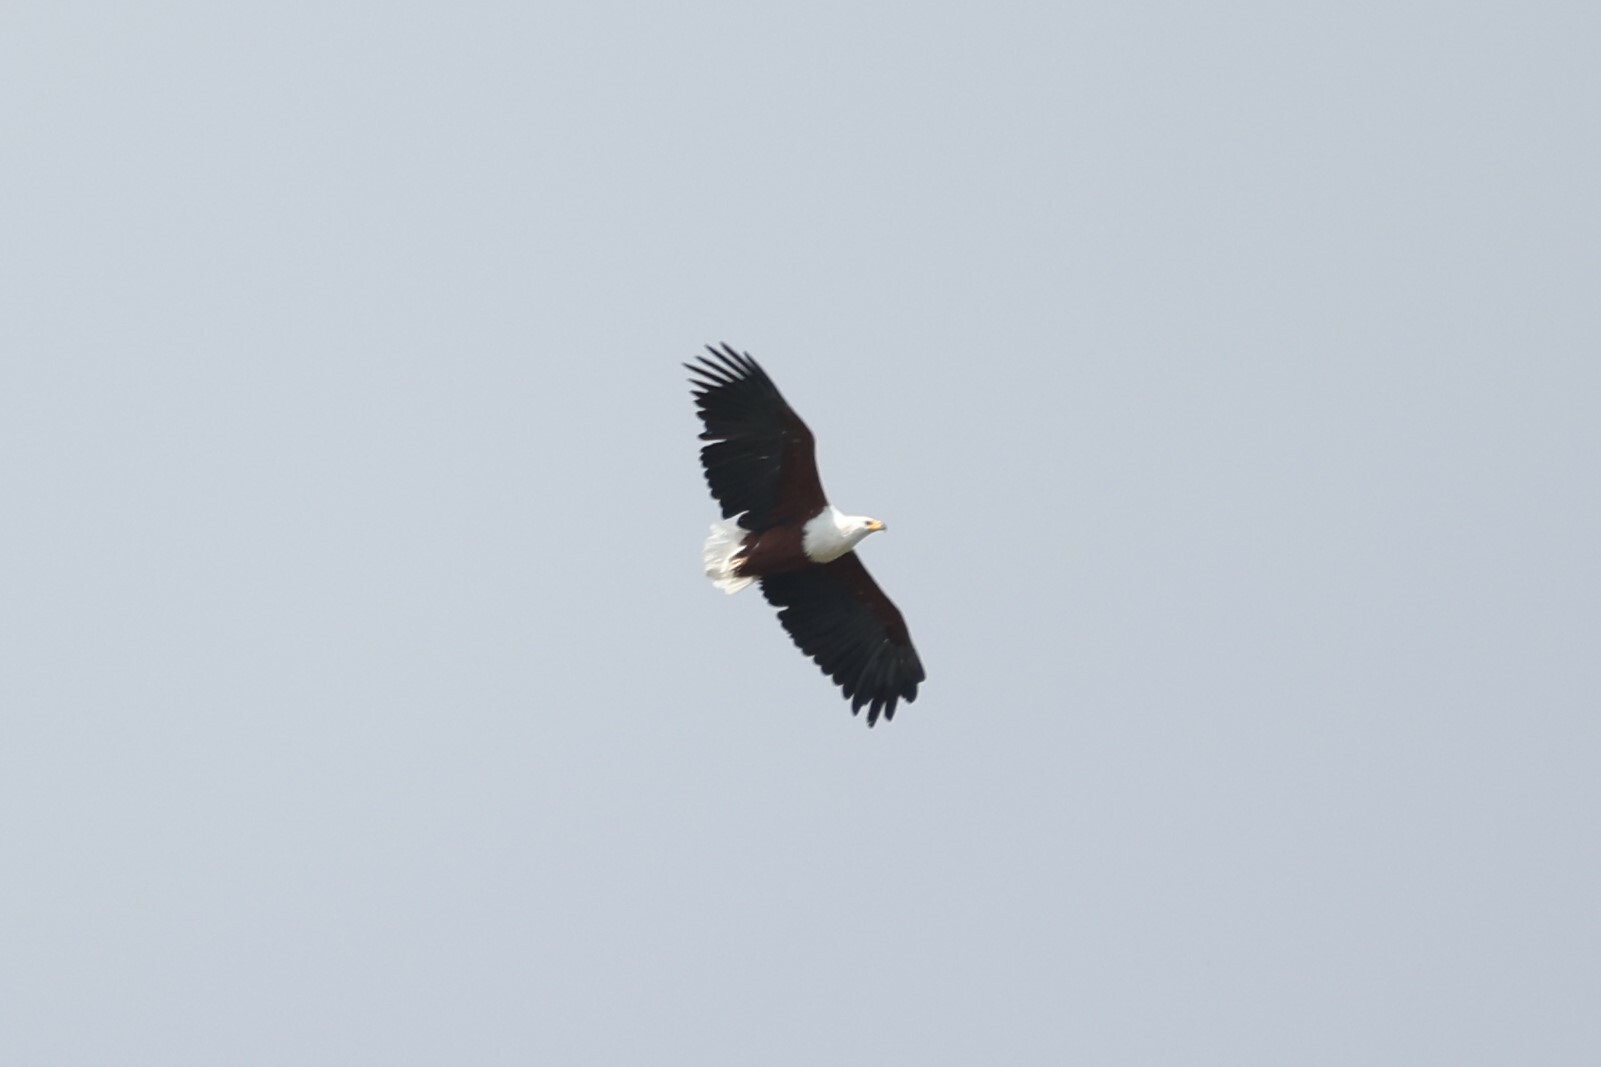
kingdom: Animalia
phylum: Chordata
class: Aves
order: Accipitriformes
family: Accipitridae
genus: Haliaeetus
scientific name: Haliaeetus vocifer
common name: African fish eagle
